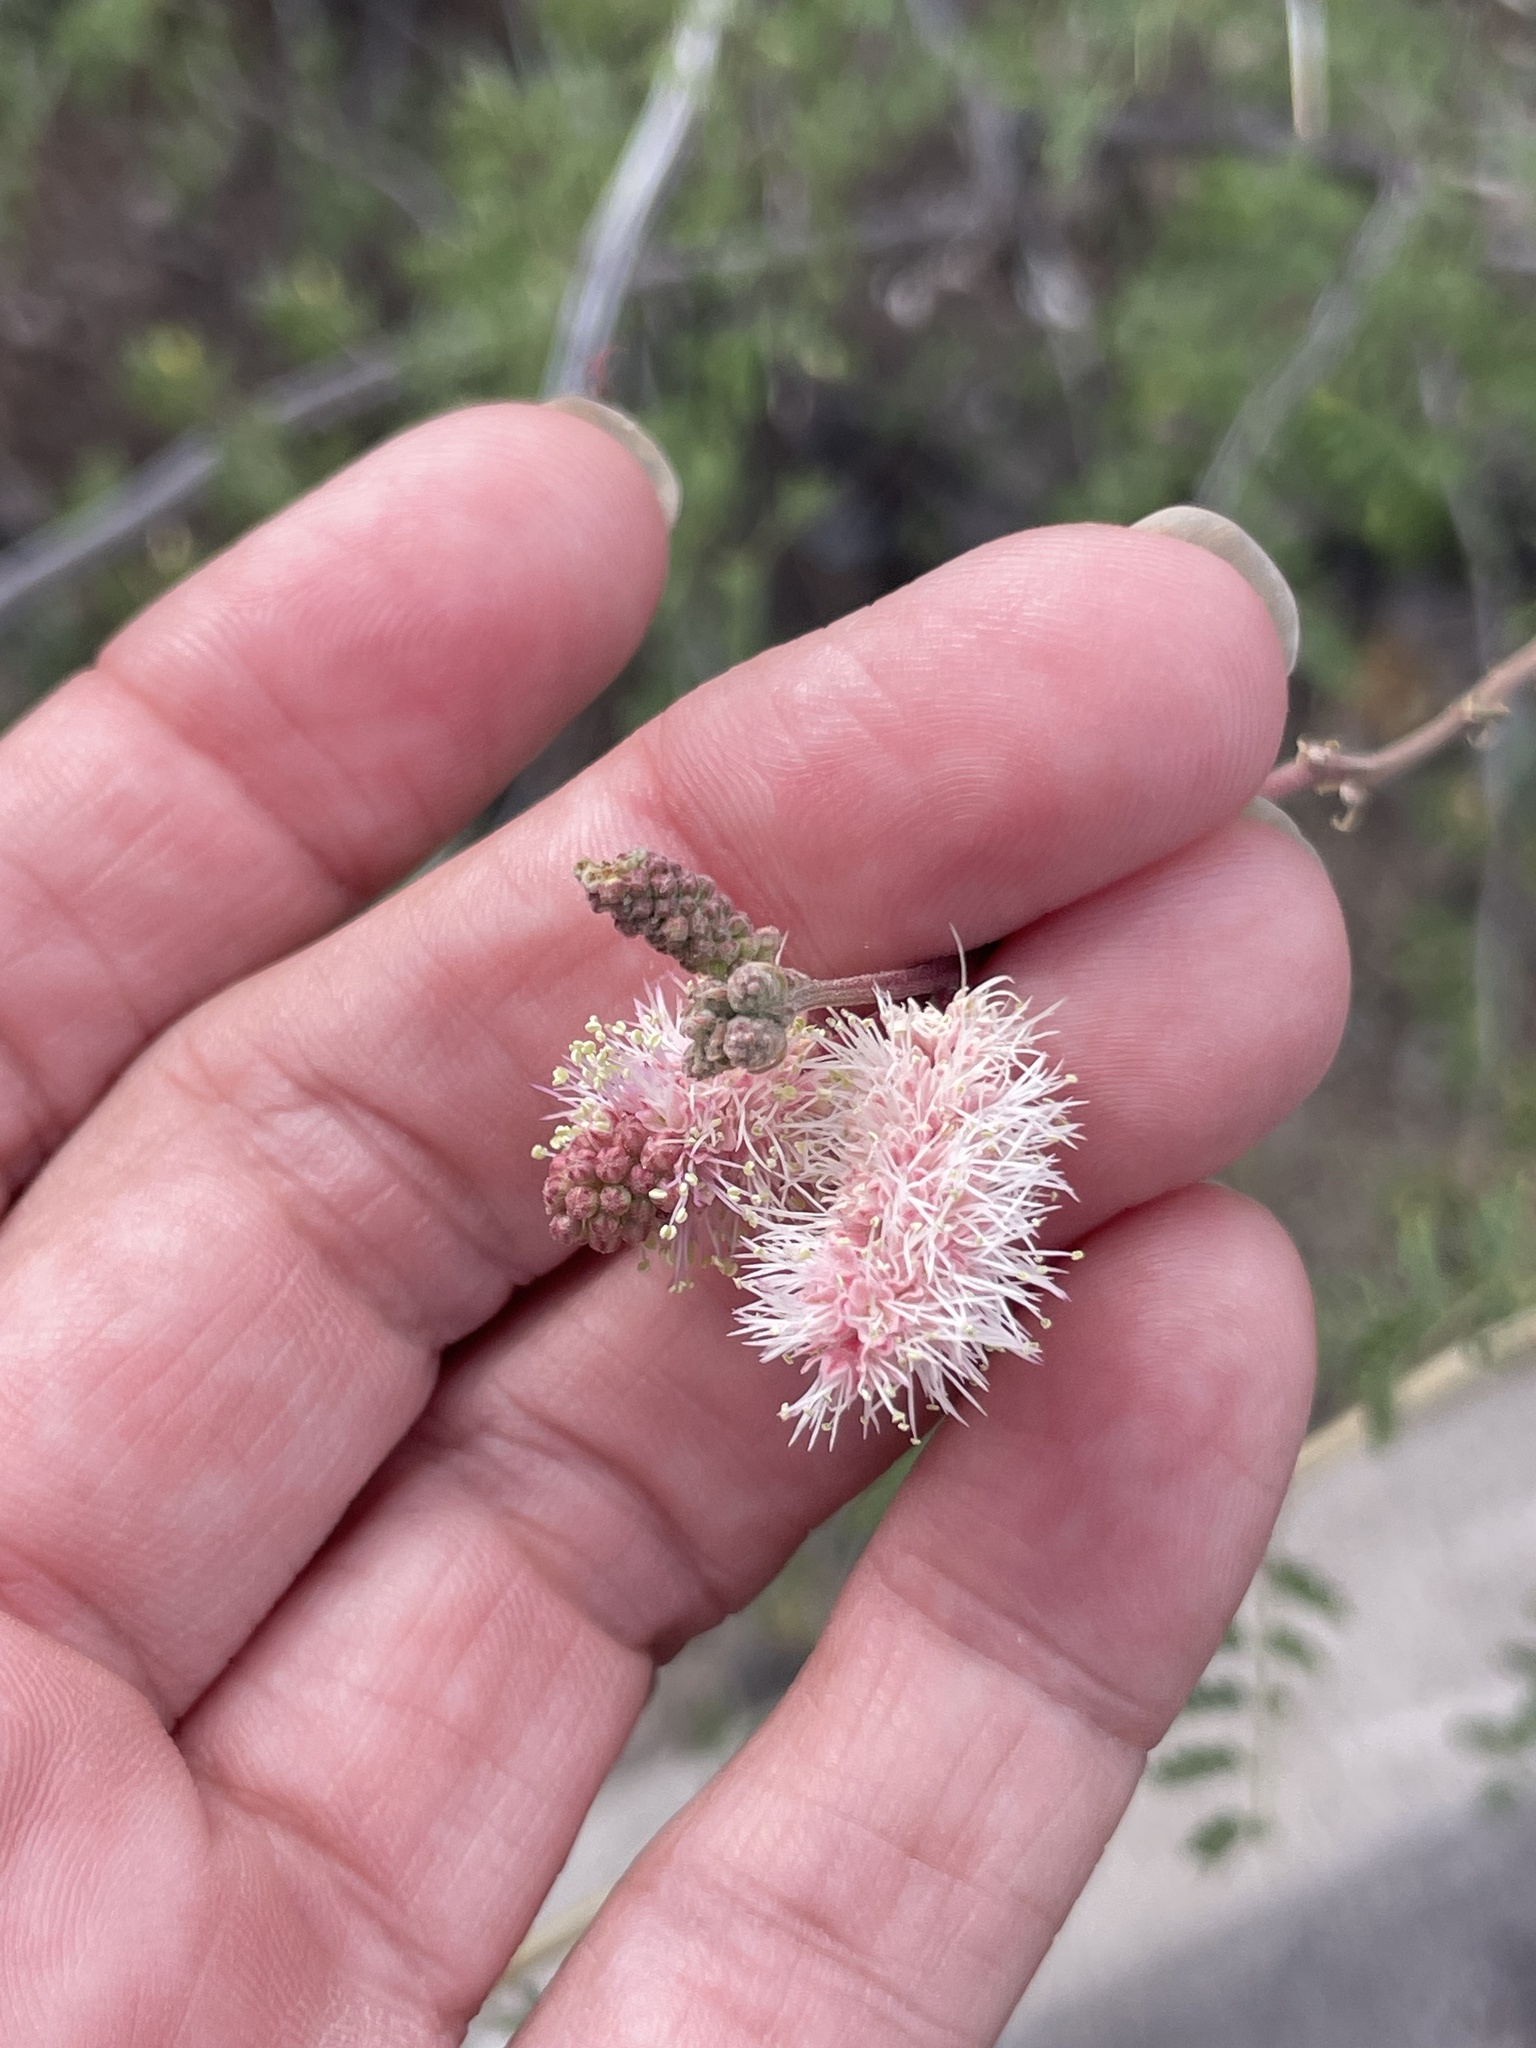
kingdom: Plantae
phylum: Tracheophyta
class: Magnoliopsida
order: Fabales
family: Fabaceae
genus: Mimosa
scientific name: Mimosa distachya
